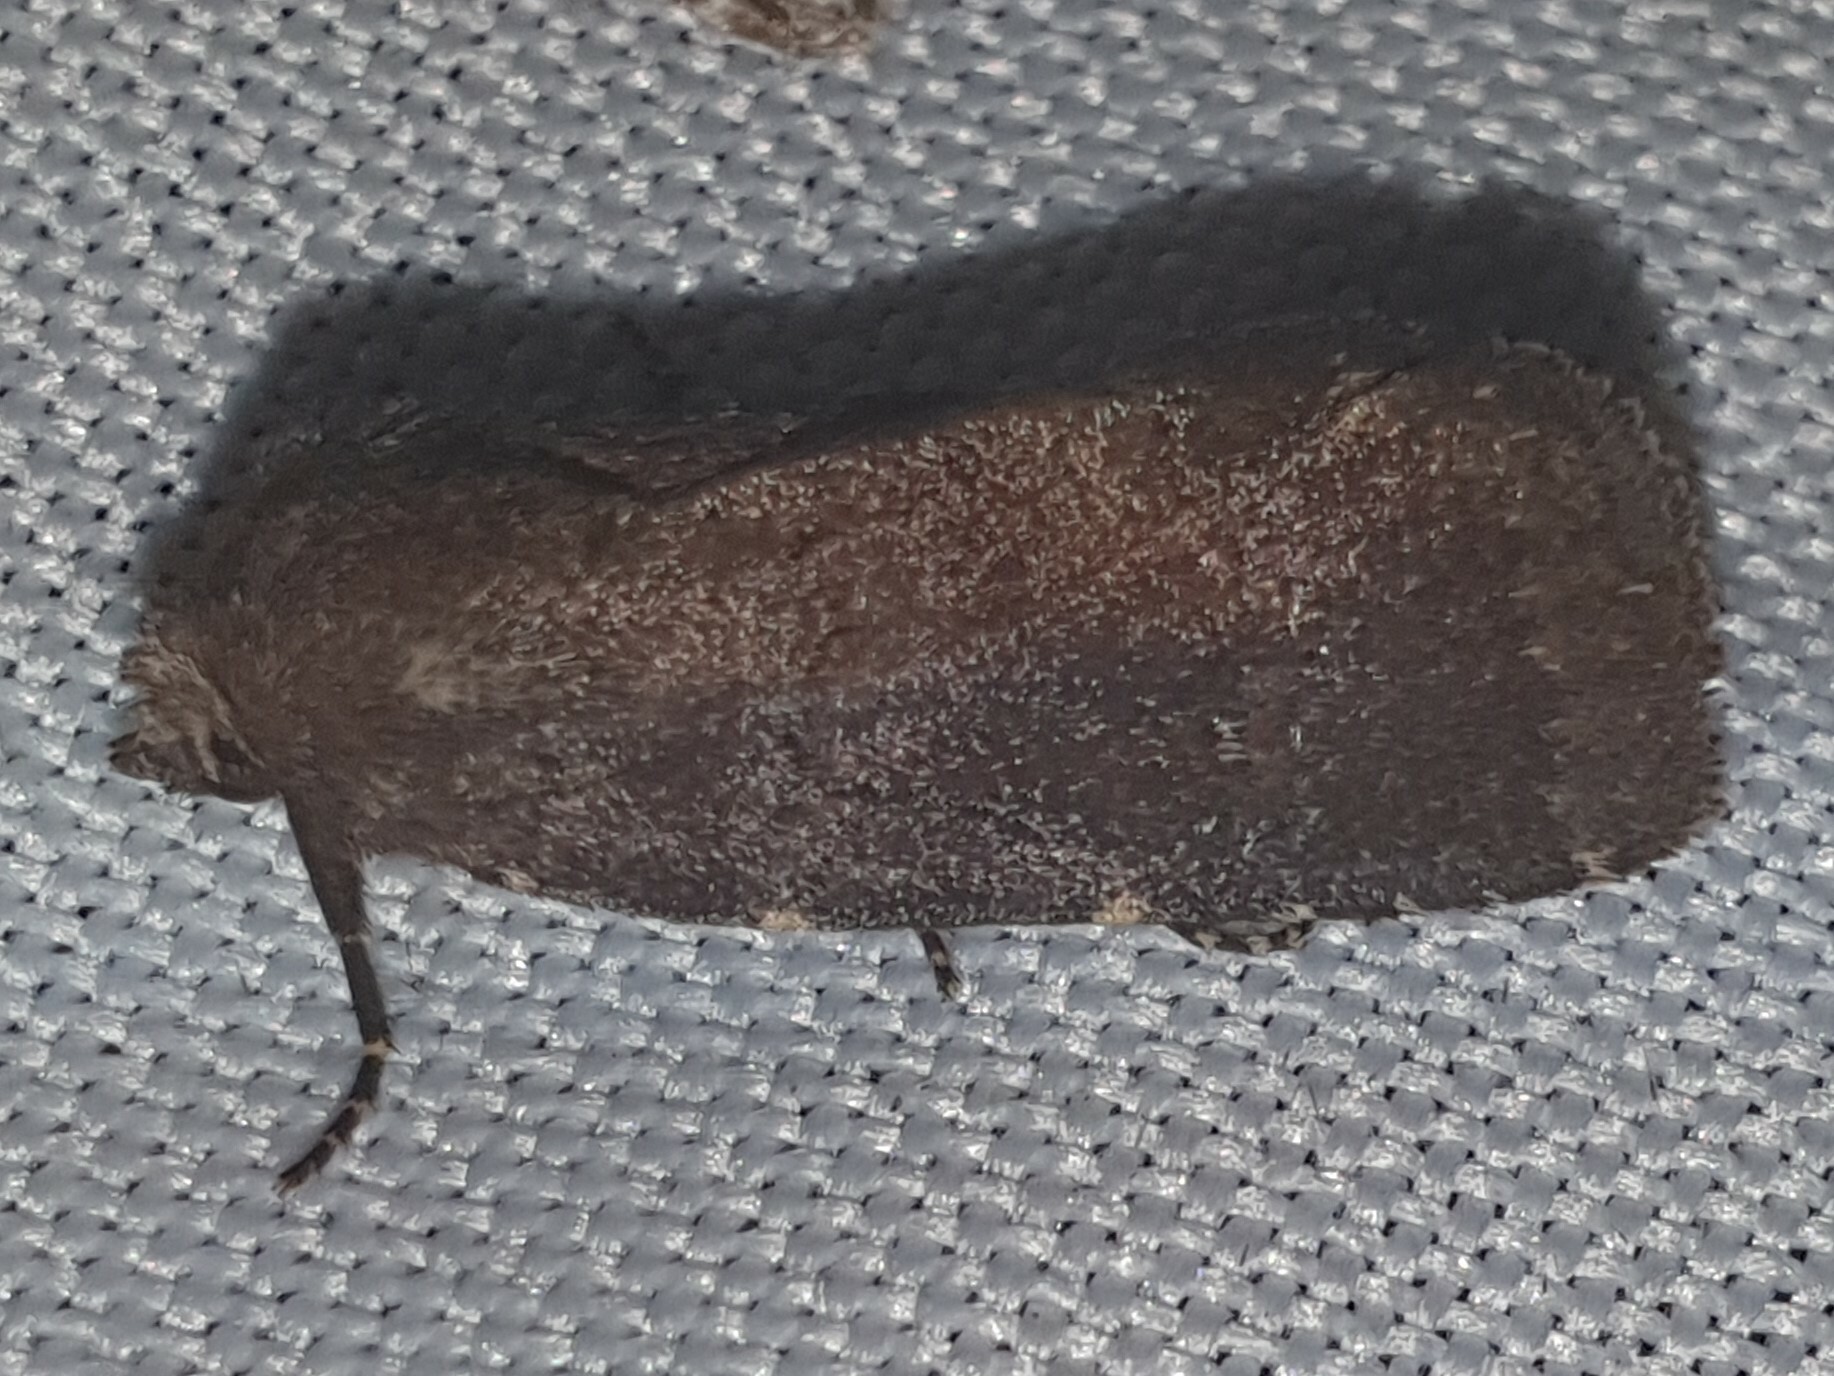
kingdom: Animalia
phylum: Arthropoda
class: Insecta
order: Lepidoptera
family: Noctuidae
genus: Charanyca
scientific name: Charanyca ferruginea
